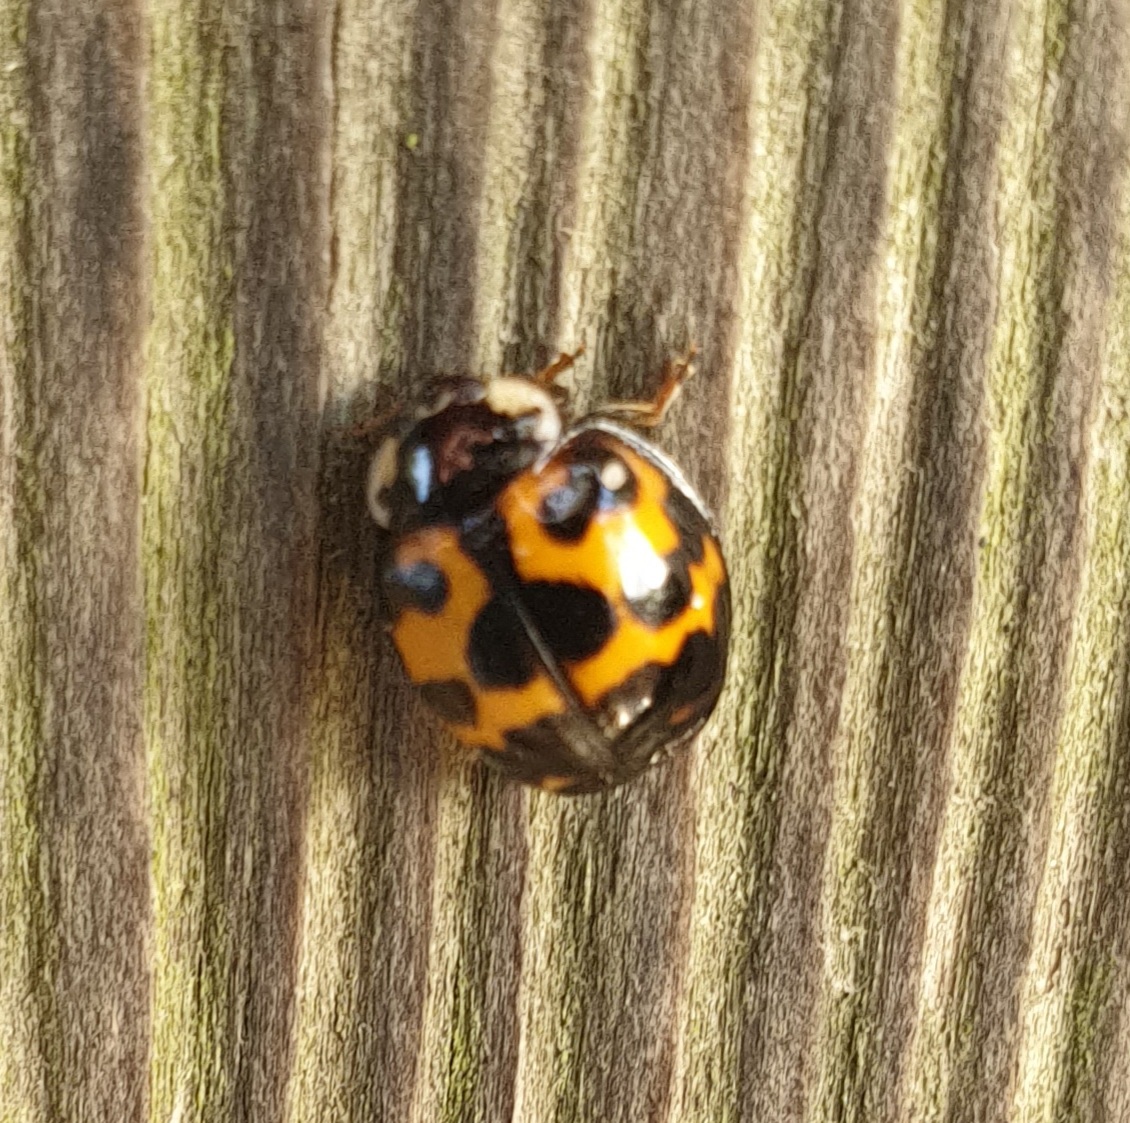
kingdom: Animalia
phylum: Arthropoda
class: Insecta
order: Coleoptera
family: Coccinellidae
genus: Harmonia
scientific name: Harmonia axyridis
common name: Harlequin ladybird
